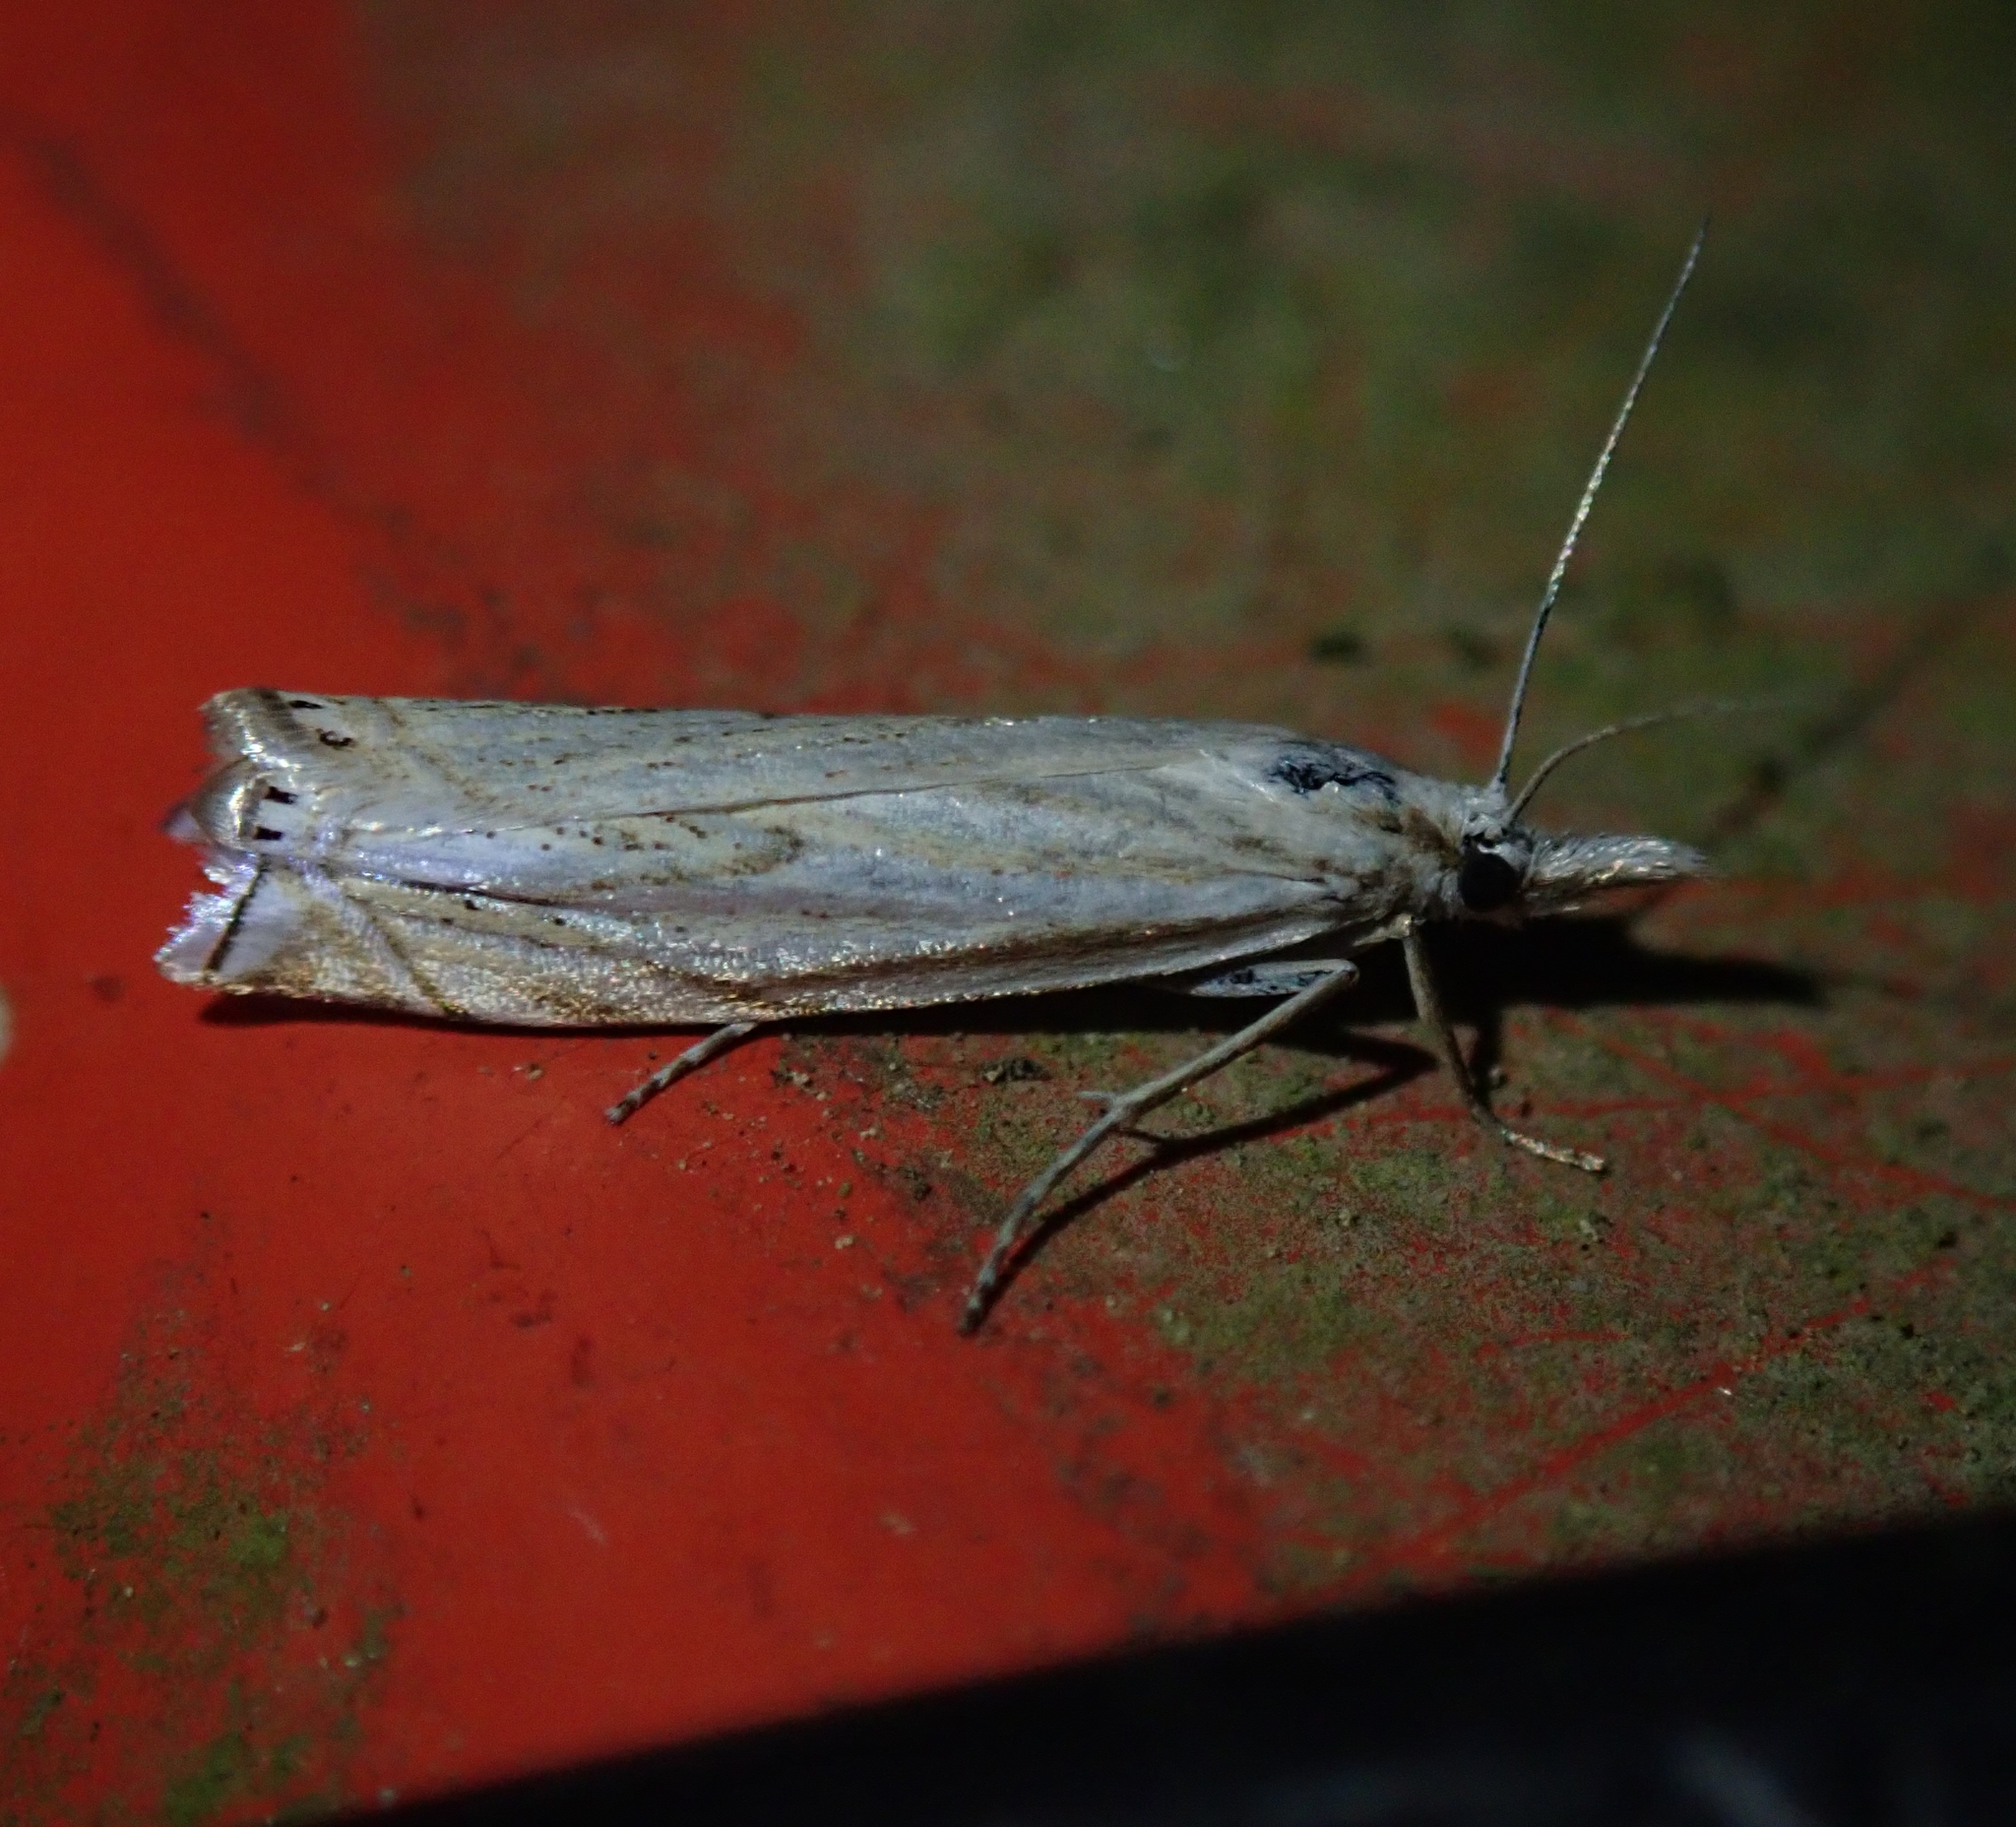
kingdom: Animalia
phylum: Arthropoda
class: Insecta
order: Lepidoptera
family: Crambidae
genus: Crambus
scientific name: Crambus nemorella
